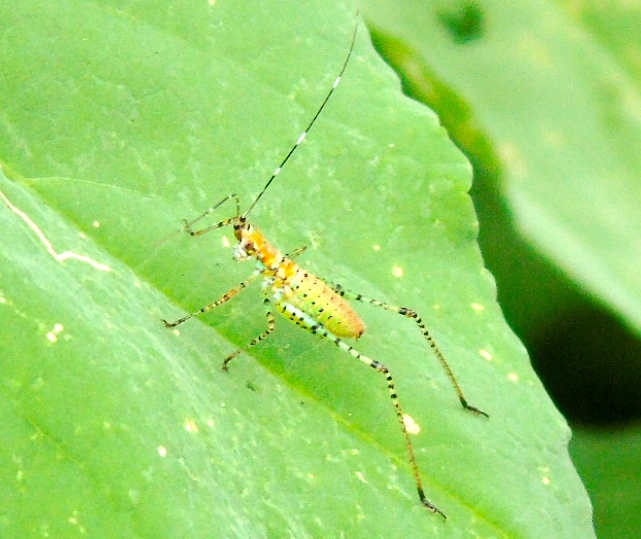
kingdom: Animalia
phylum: Arthropoda
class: Insecta
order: Orthoptera
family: Tettigoniidae
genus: Scudderia
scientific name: Scudderia
